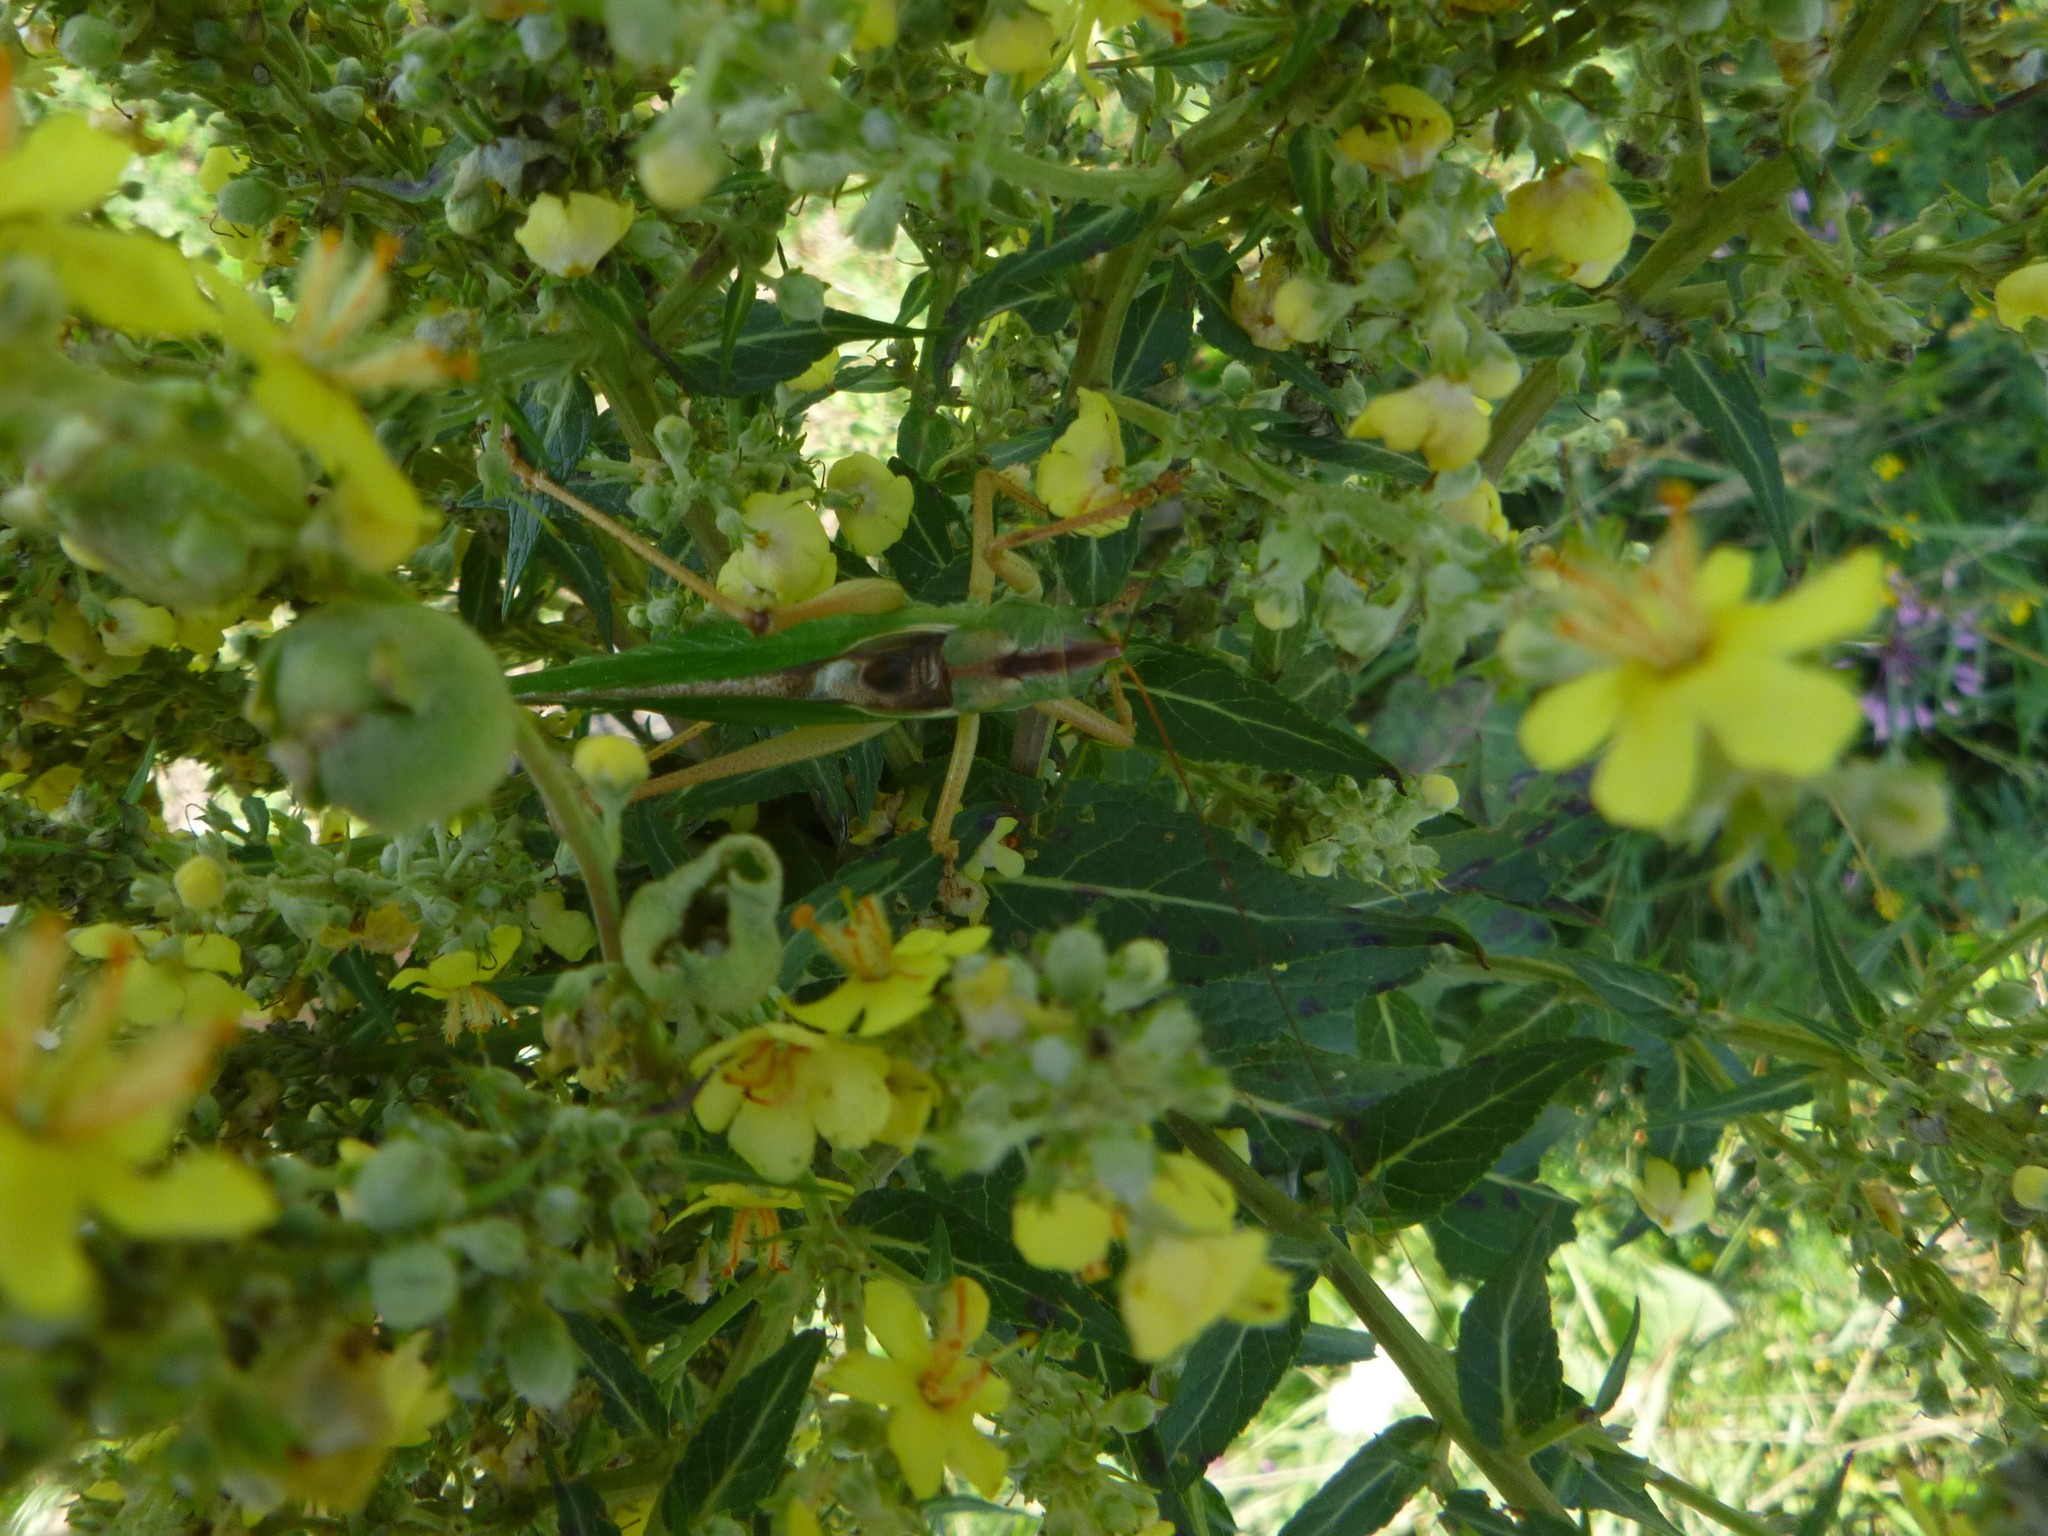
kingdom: Animalia
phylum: Arthropoda
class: Insecta
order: Orthoptera
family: Tettigoniidae
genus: Tettigonia
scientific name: Tettigonia viridissima
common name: Great green bush-cricket
